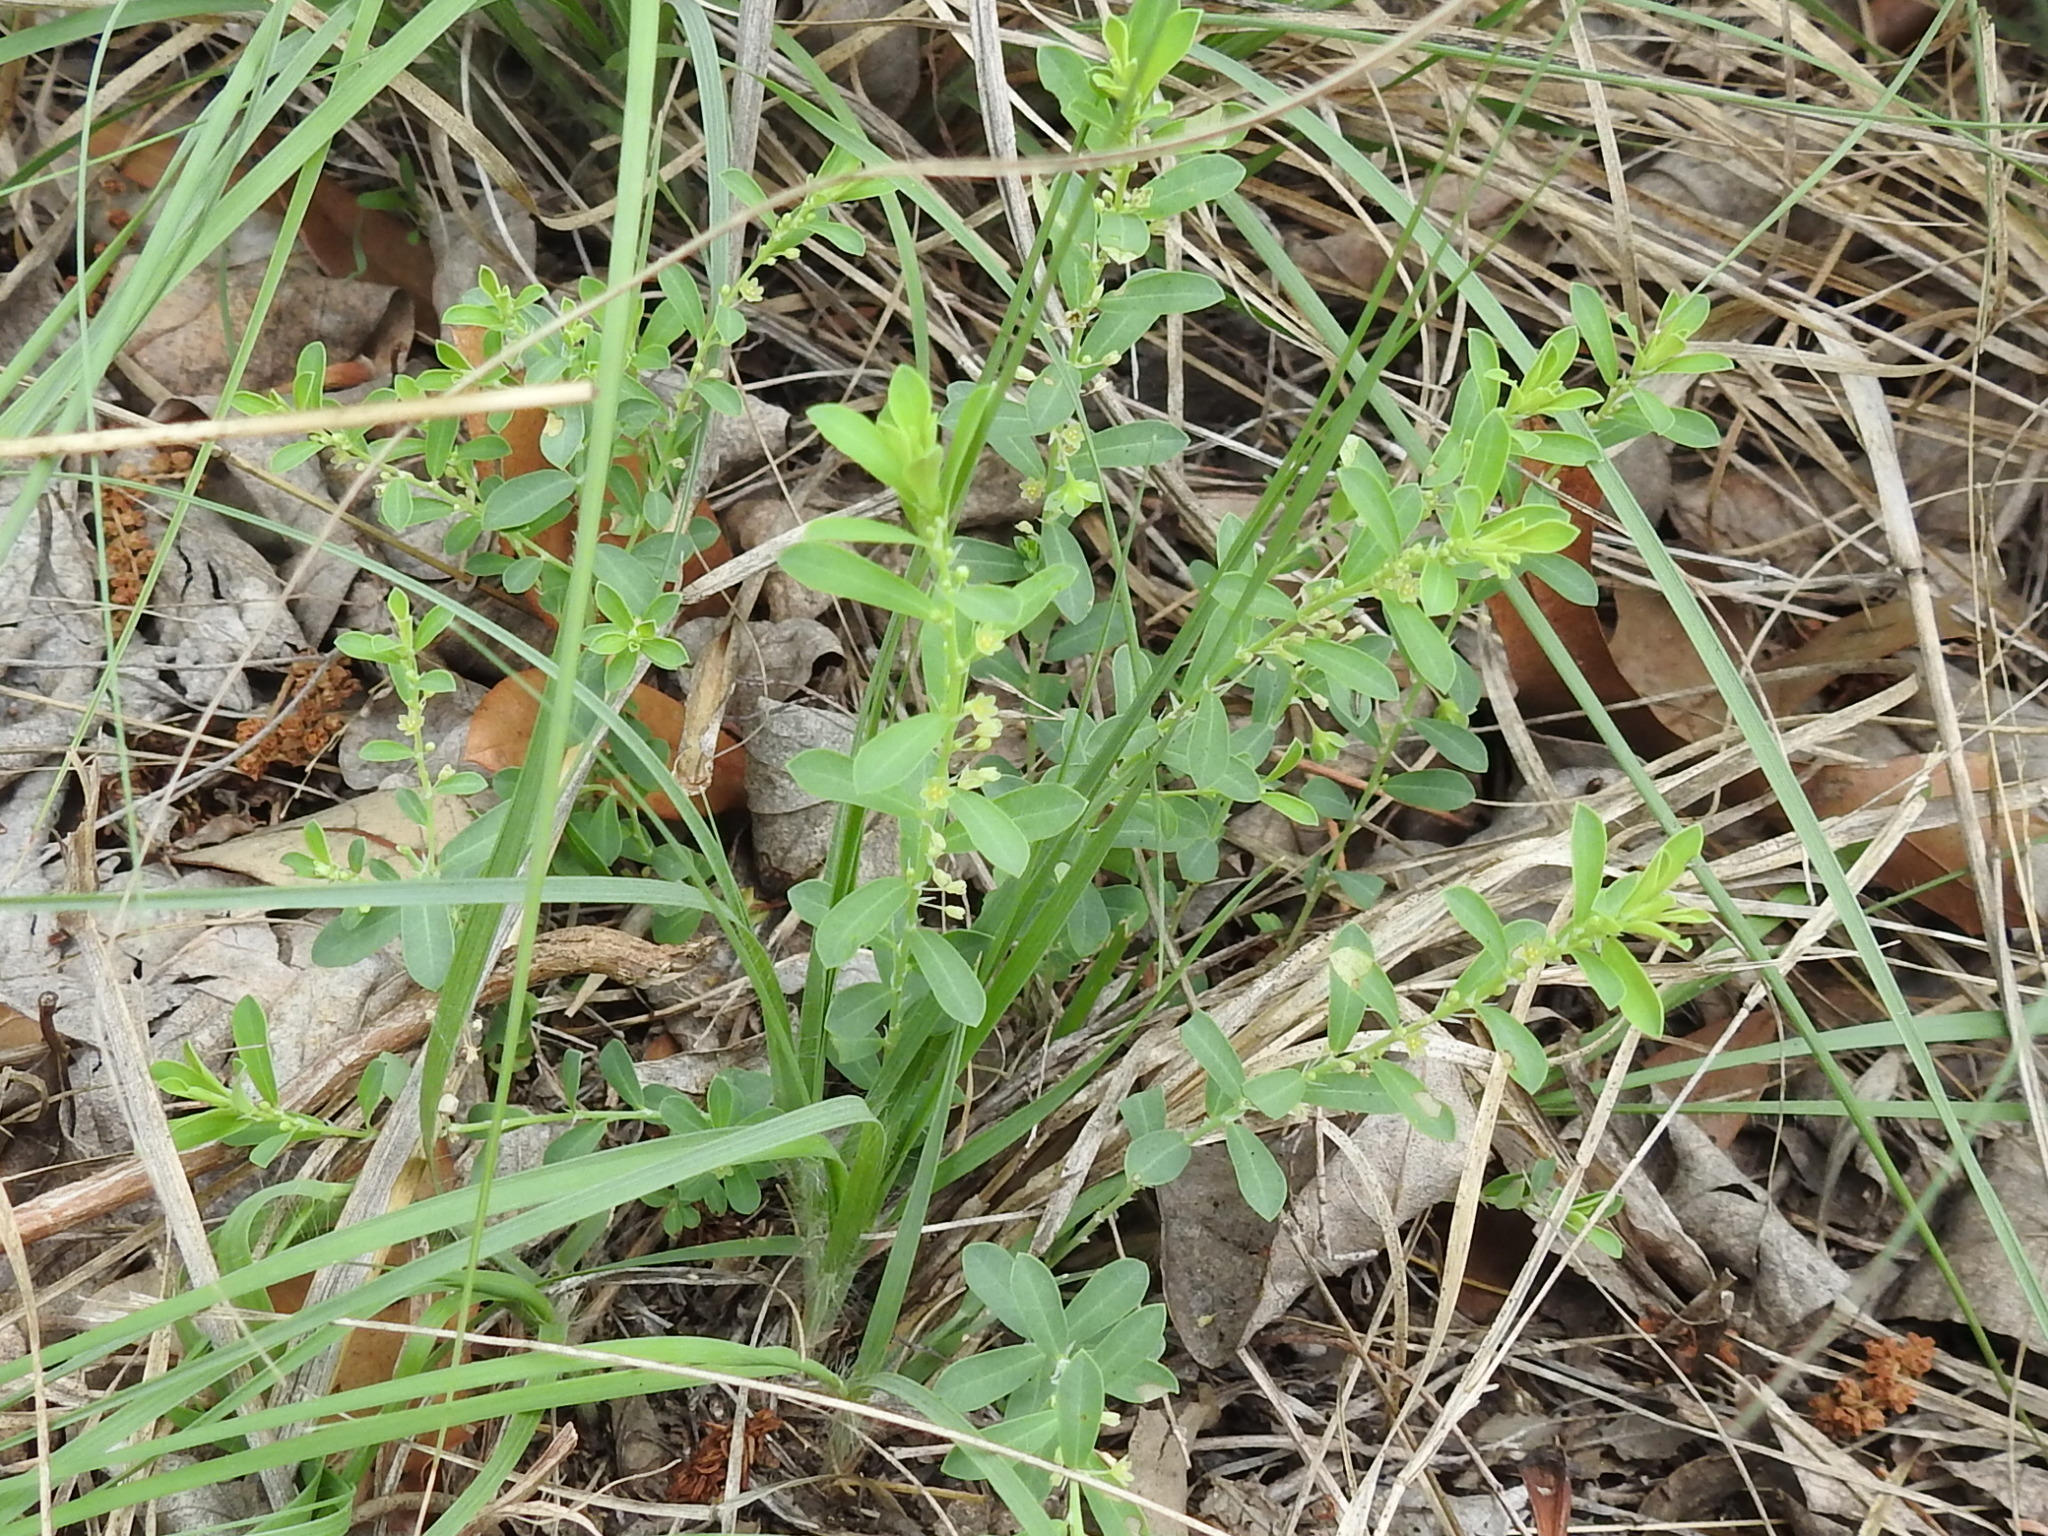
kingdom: Plantae
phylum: Tracheophyta
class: Magnoliopsida
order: Malpighiales
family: Phyllanthaceae
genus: Phyllanthus
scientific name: Phyllanthus polygonoides
